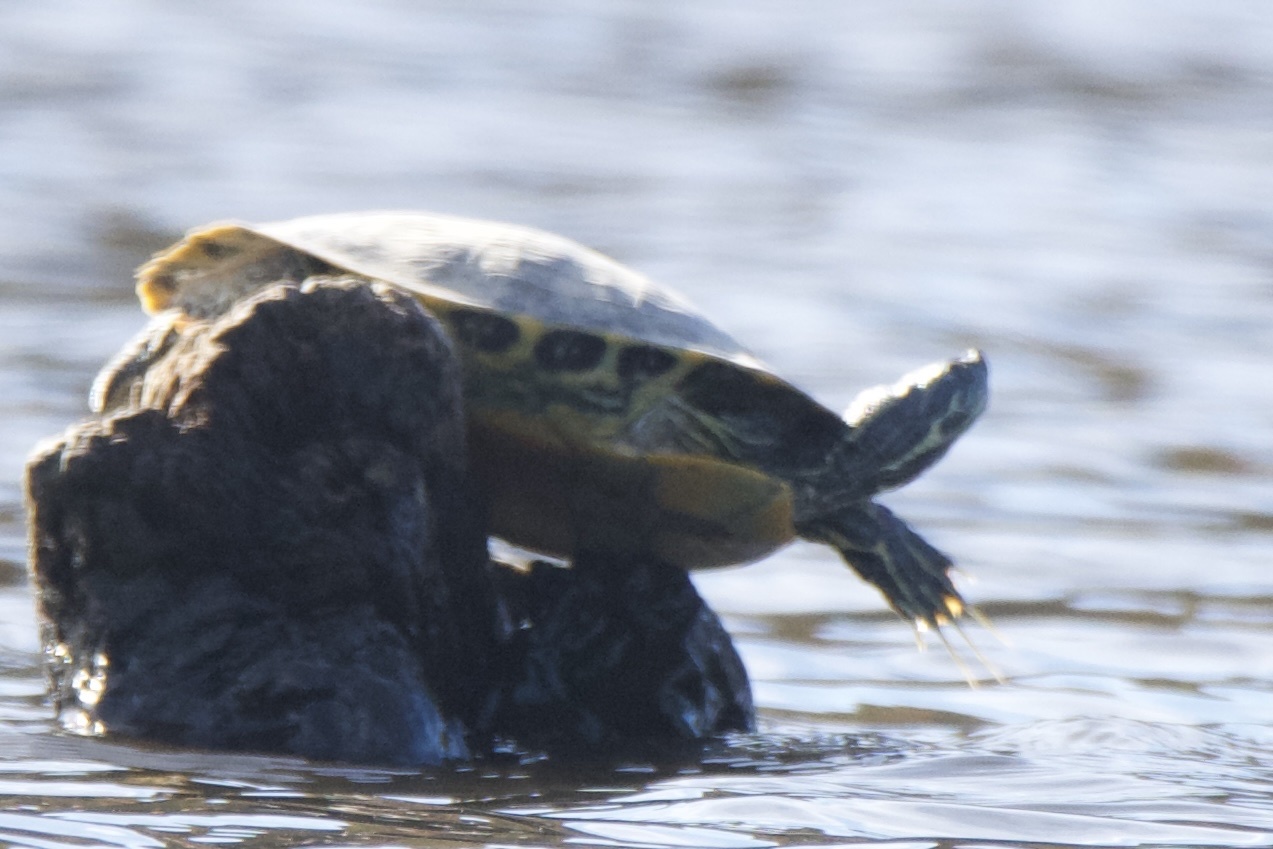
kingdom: Animalia
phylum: Chordata
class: Testudines
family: Emydidae
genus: Pseudemys
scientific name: Pseudemys concinna
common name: Eastern river cooter
